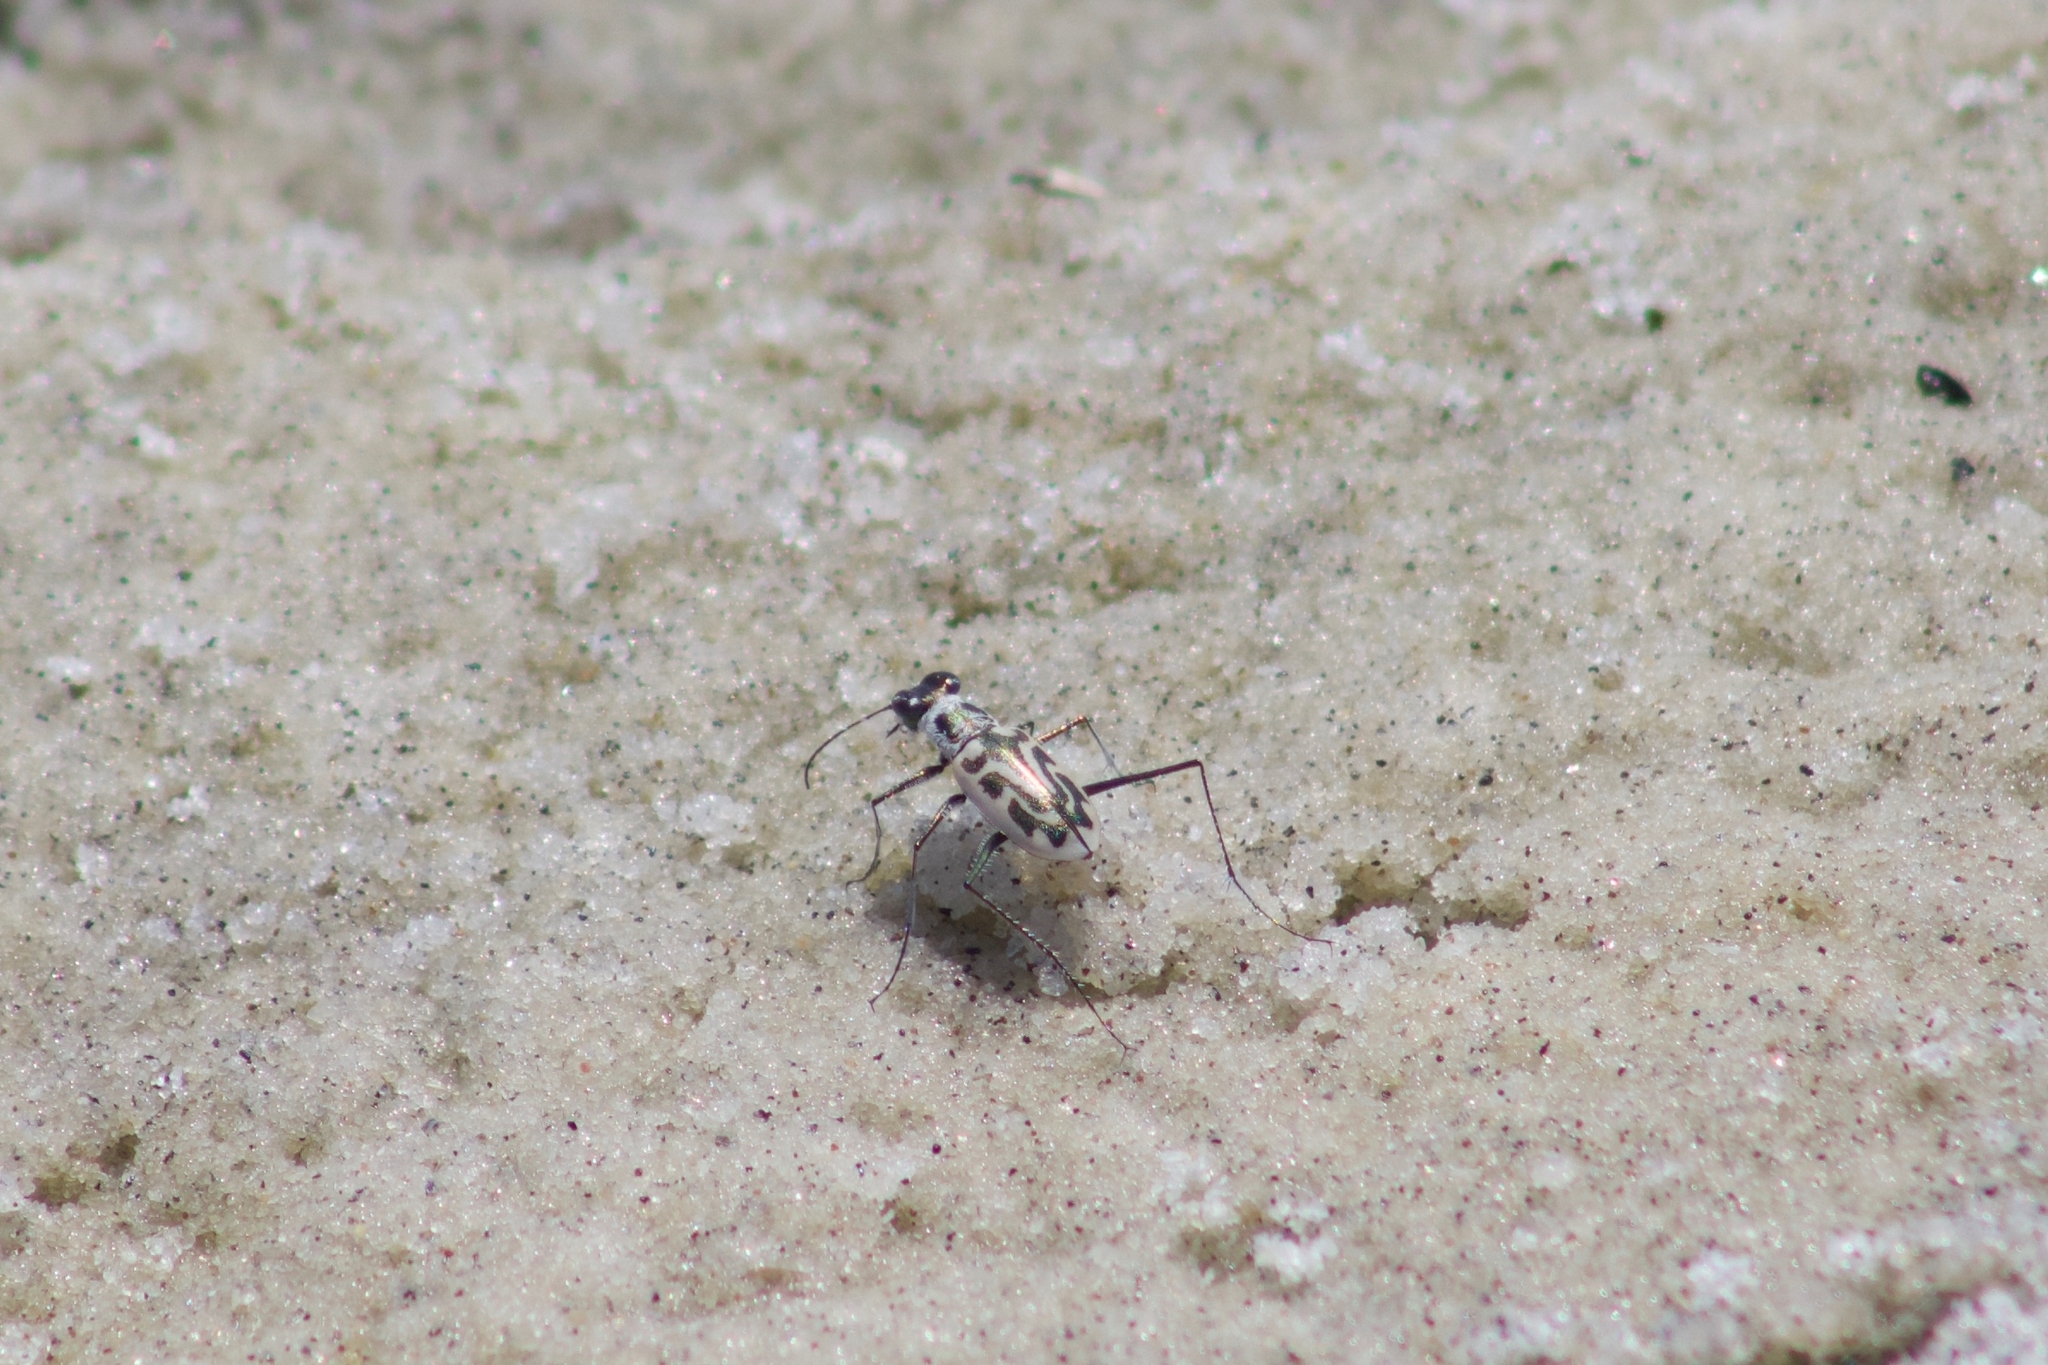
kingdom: Animalia
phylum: Arthropoda
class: Insecta
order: Coleoptera
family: Carabidae
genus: Habroscelimorpha
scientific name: Habroscelimorpha dorsalis
